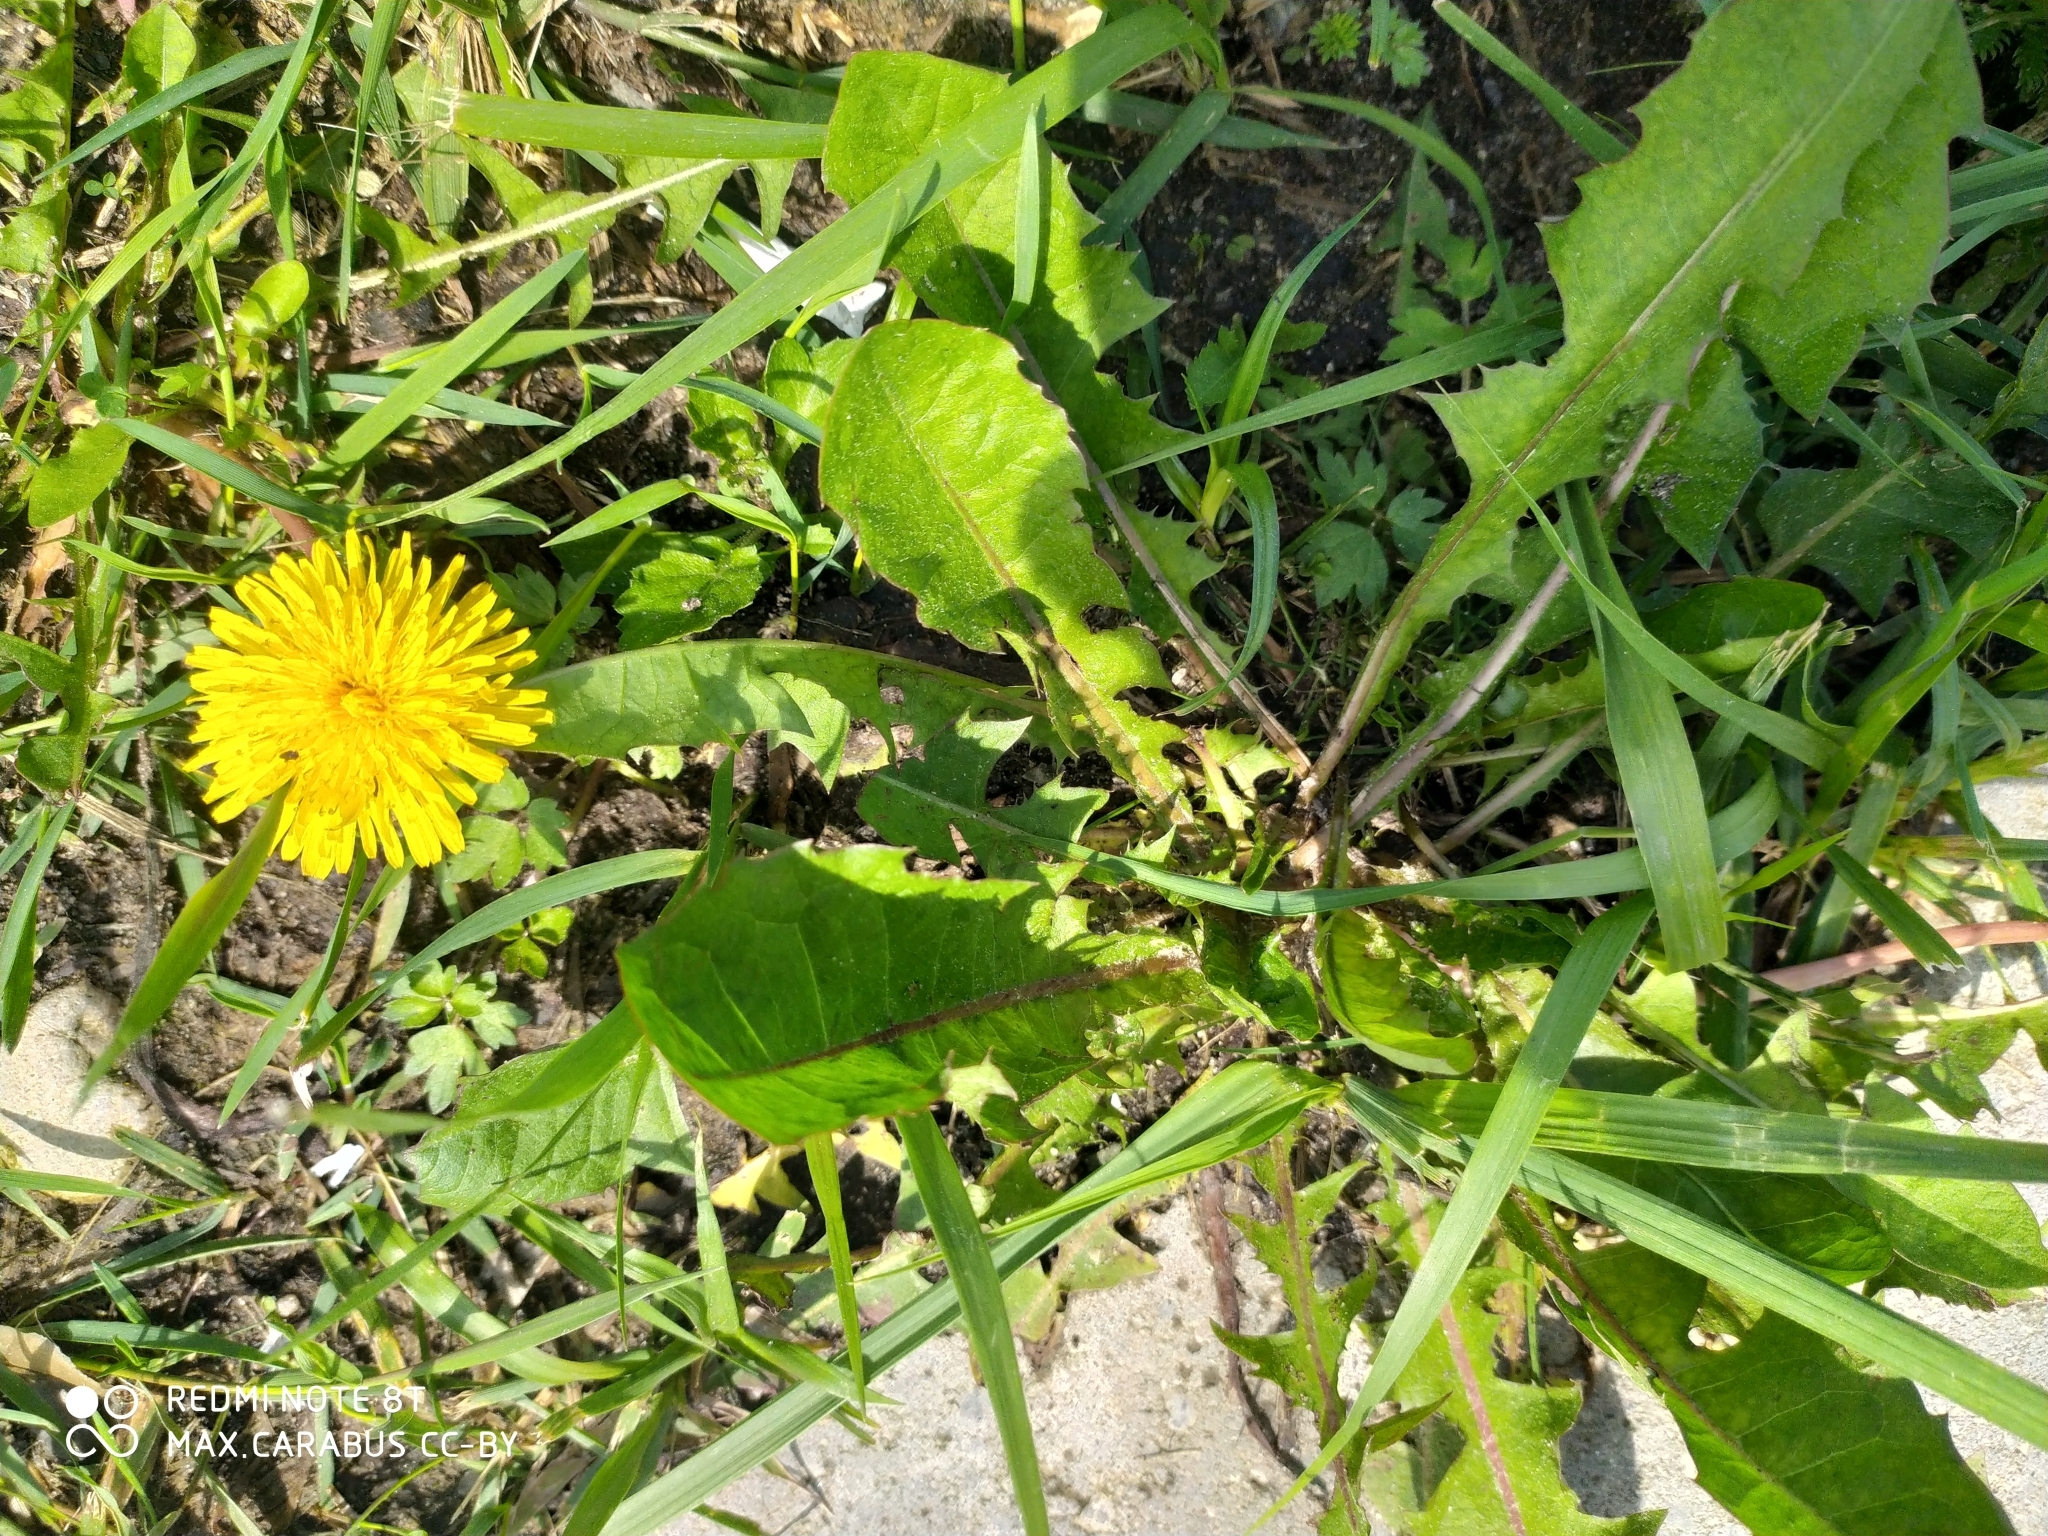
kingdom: Plantae
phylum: Tracheophyta
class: Magnoliopsida
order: Asterales
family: Asteraceae
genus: Taraxacum
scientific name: Taraxacum officinale
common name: Common dandelion
